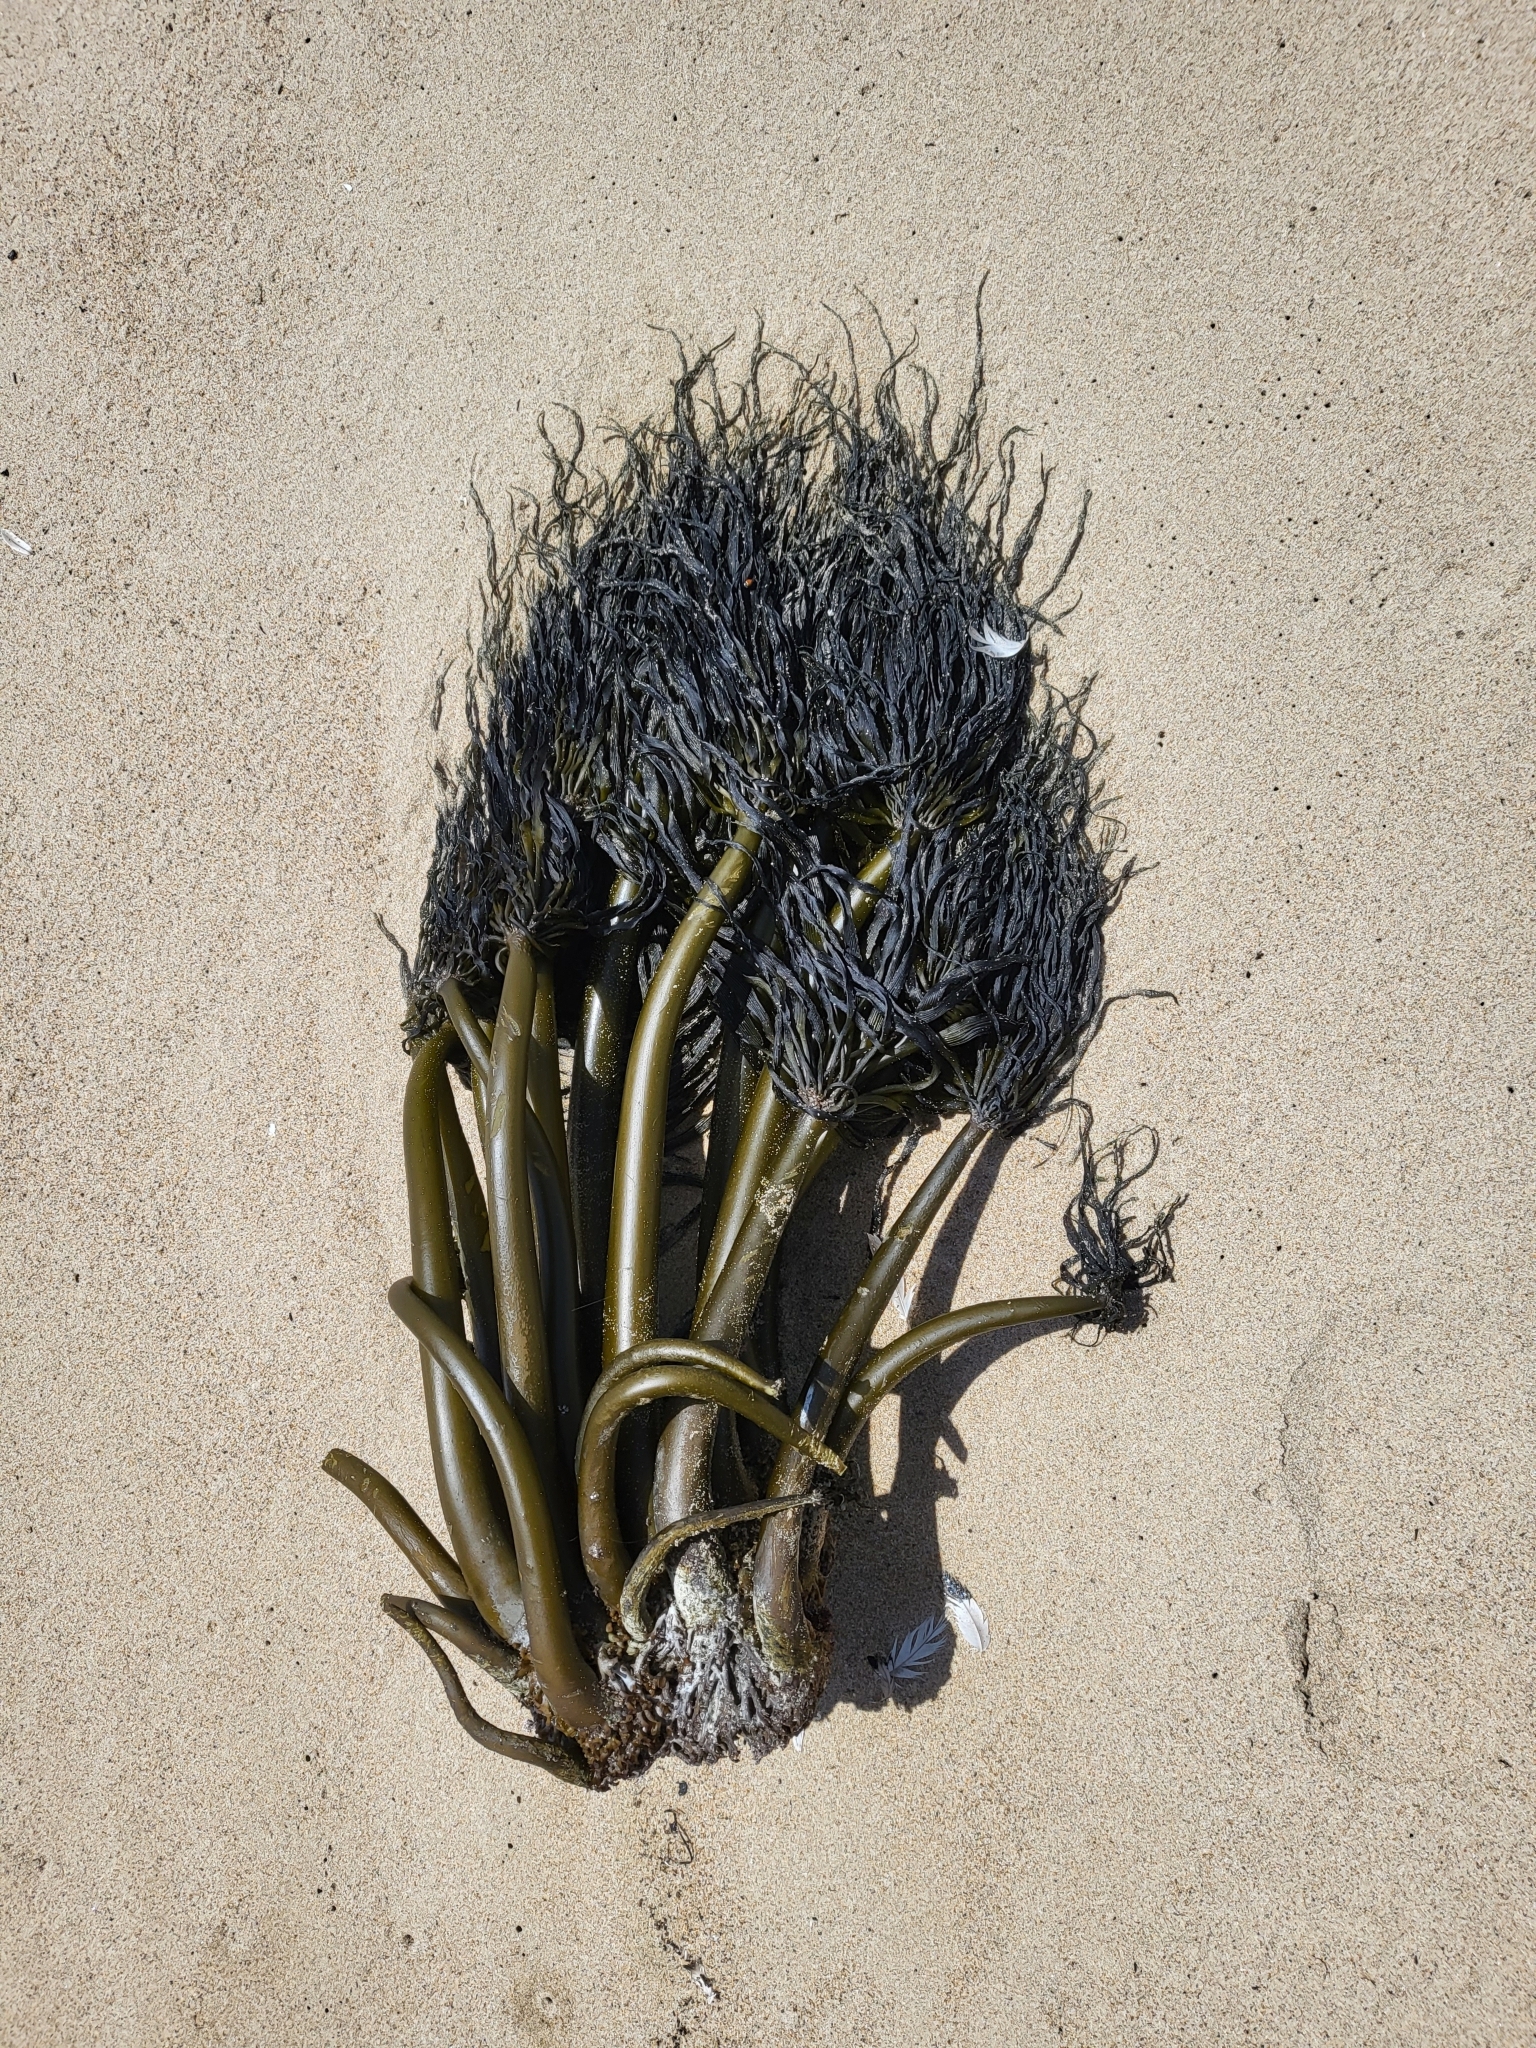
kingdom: Chromista
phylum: Ochrophyta
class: Phaeophyceae
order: Laminariales
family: Laminariaceae
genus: Postelsia
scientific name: Postelsia palmiformis
